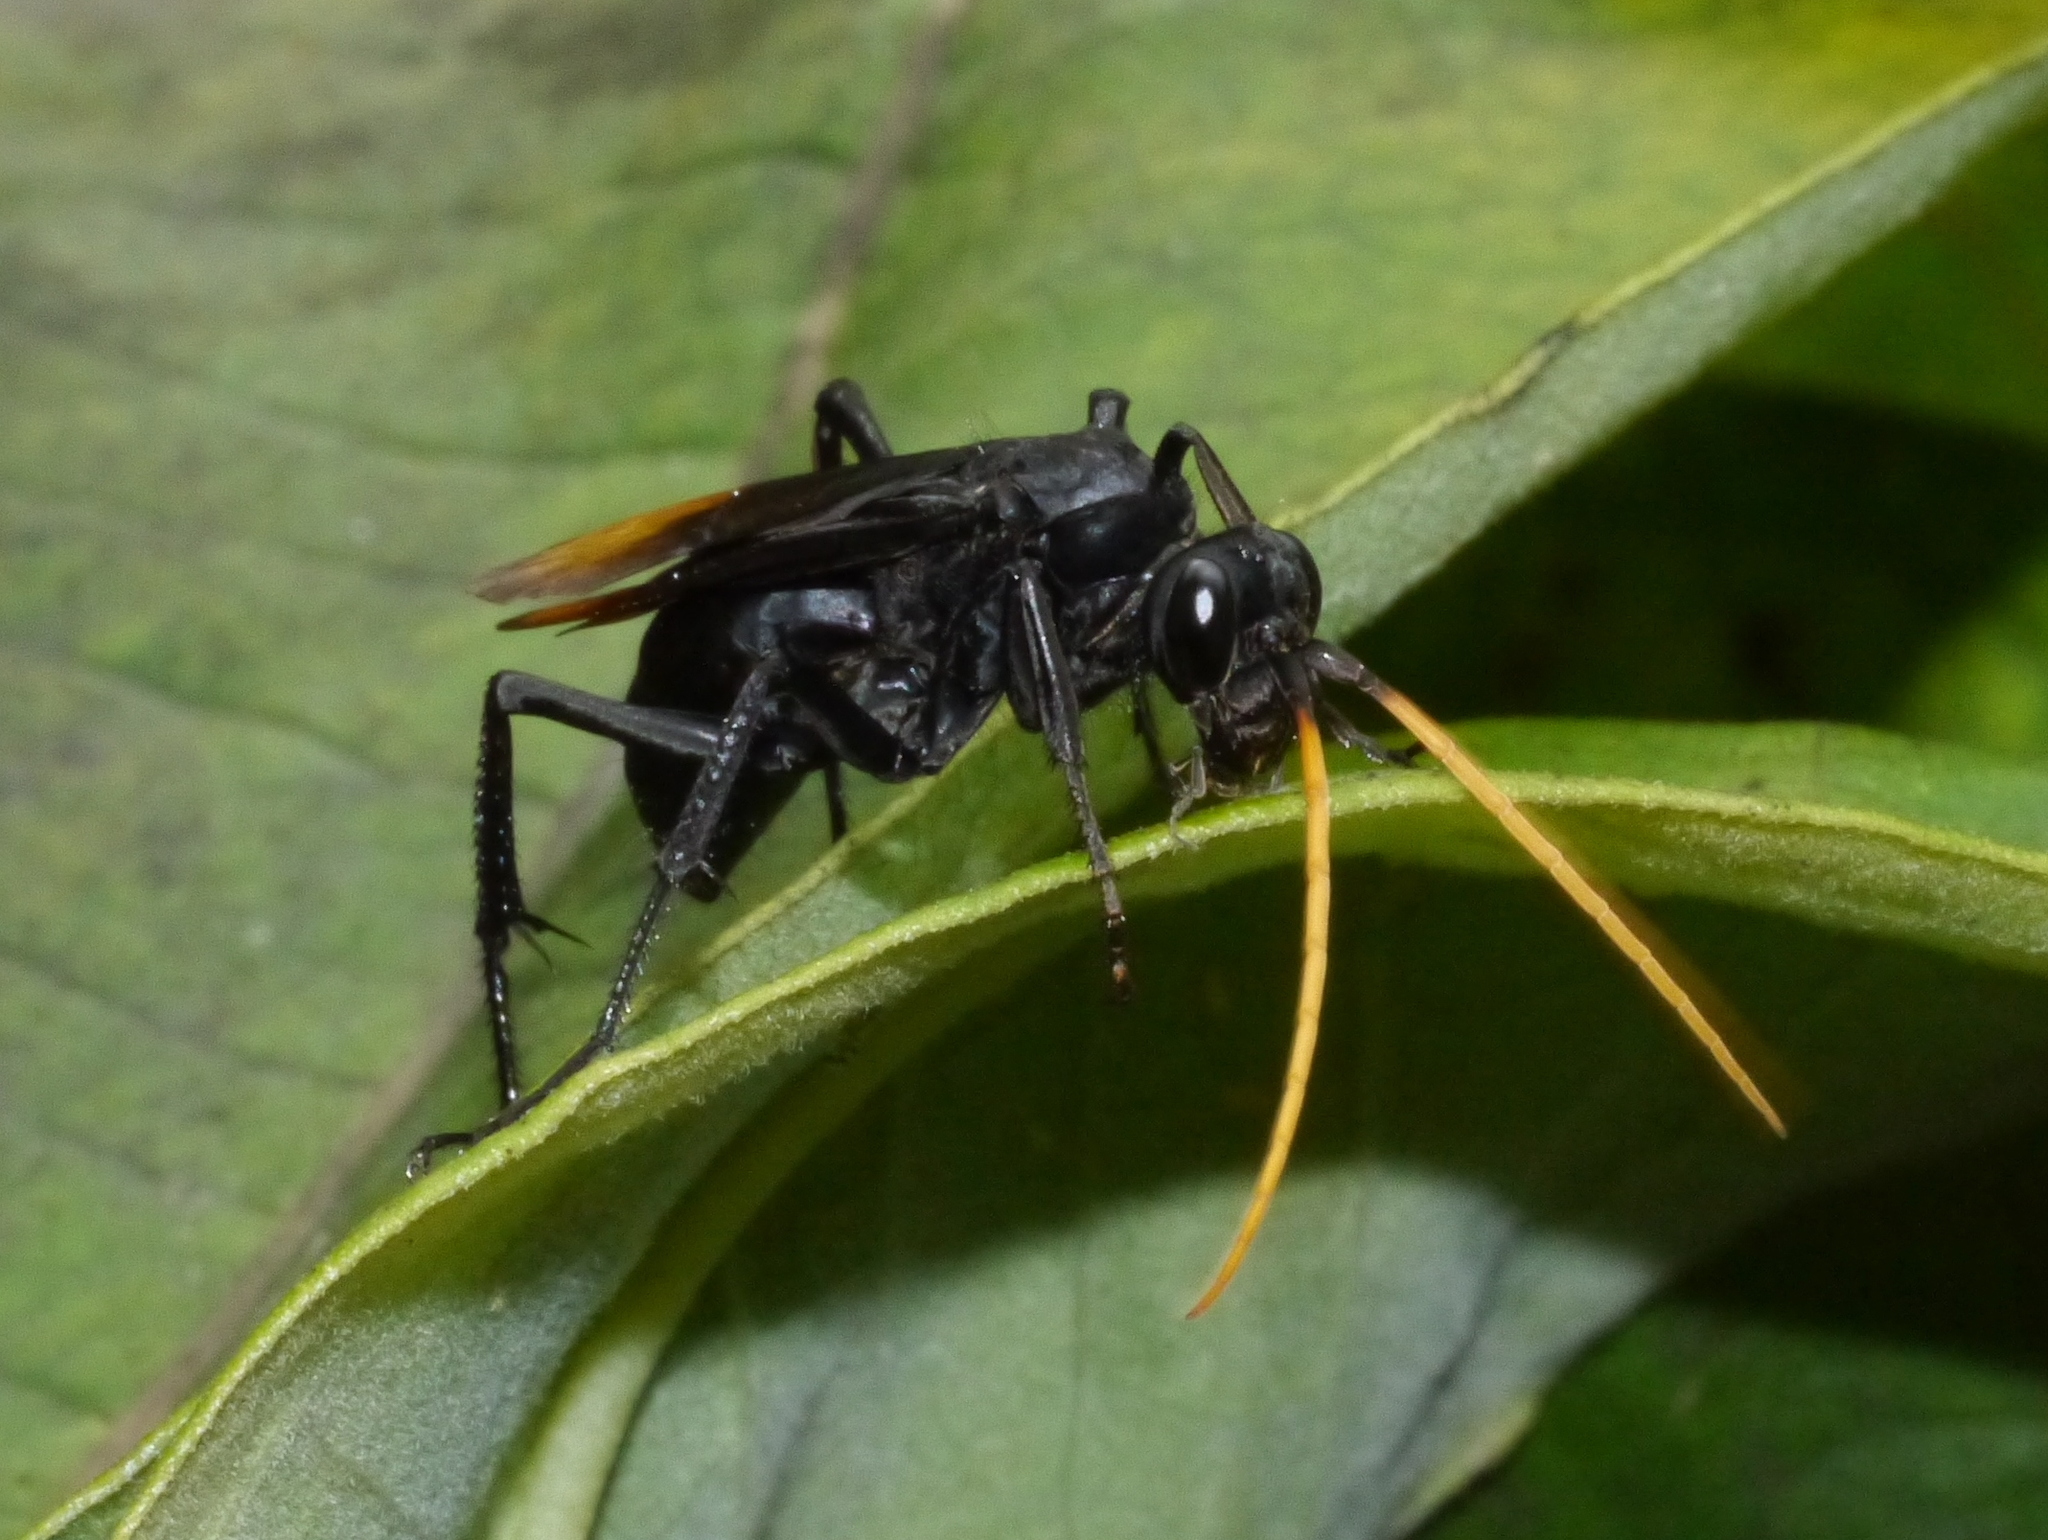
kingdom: Animalia
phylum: Arthropoda
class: Insecta
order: Hymenoptera
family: Pompilidae
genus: Entypus
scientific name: Entypus unifasciatus
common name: Eastern tawny-horned spider wasp
